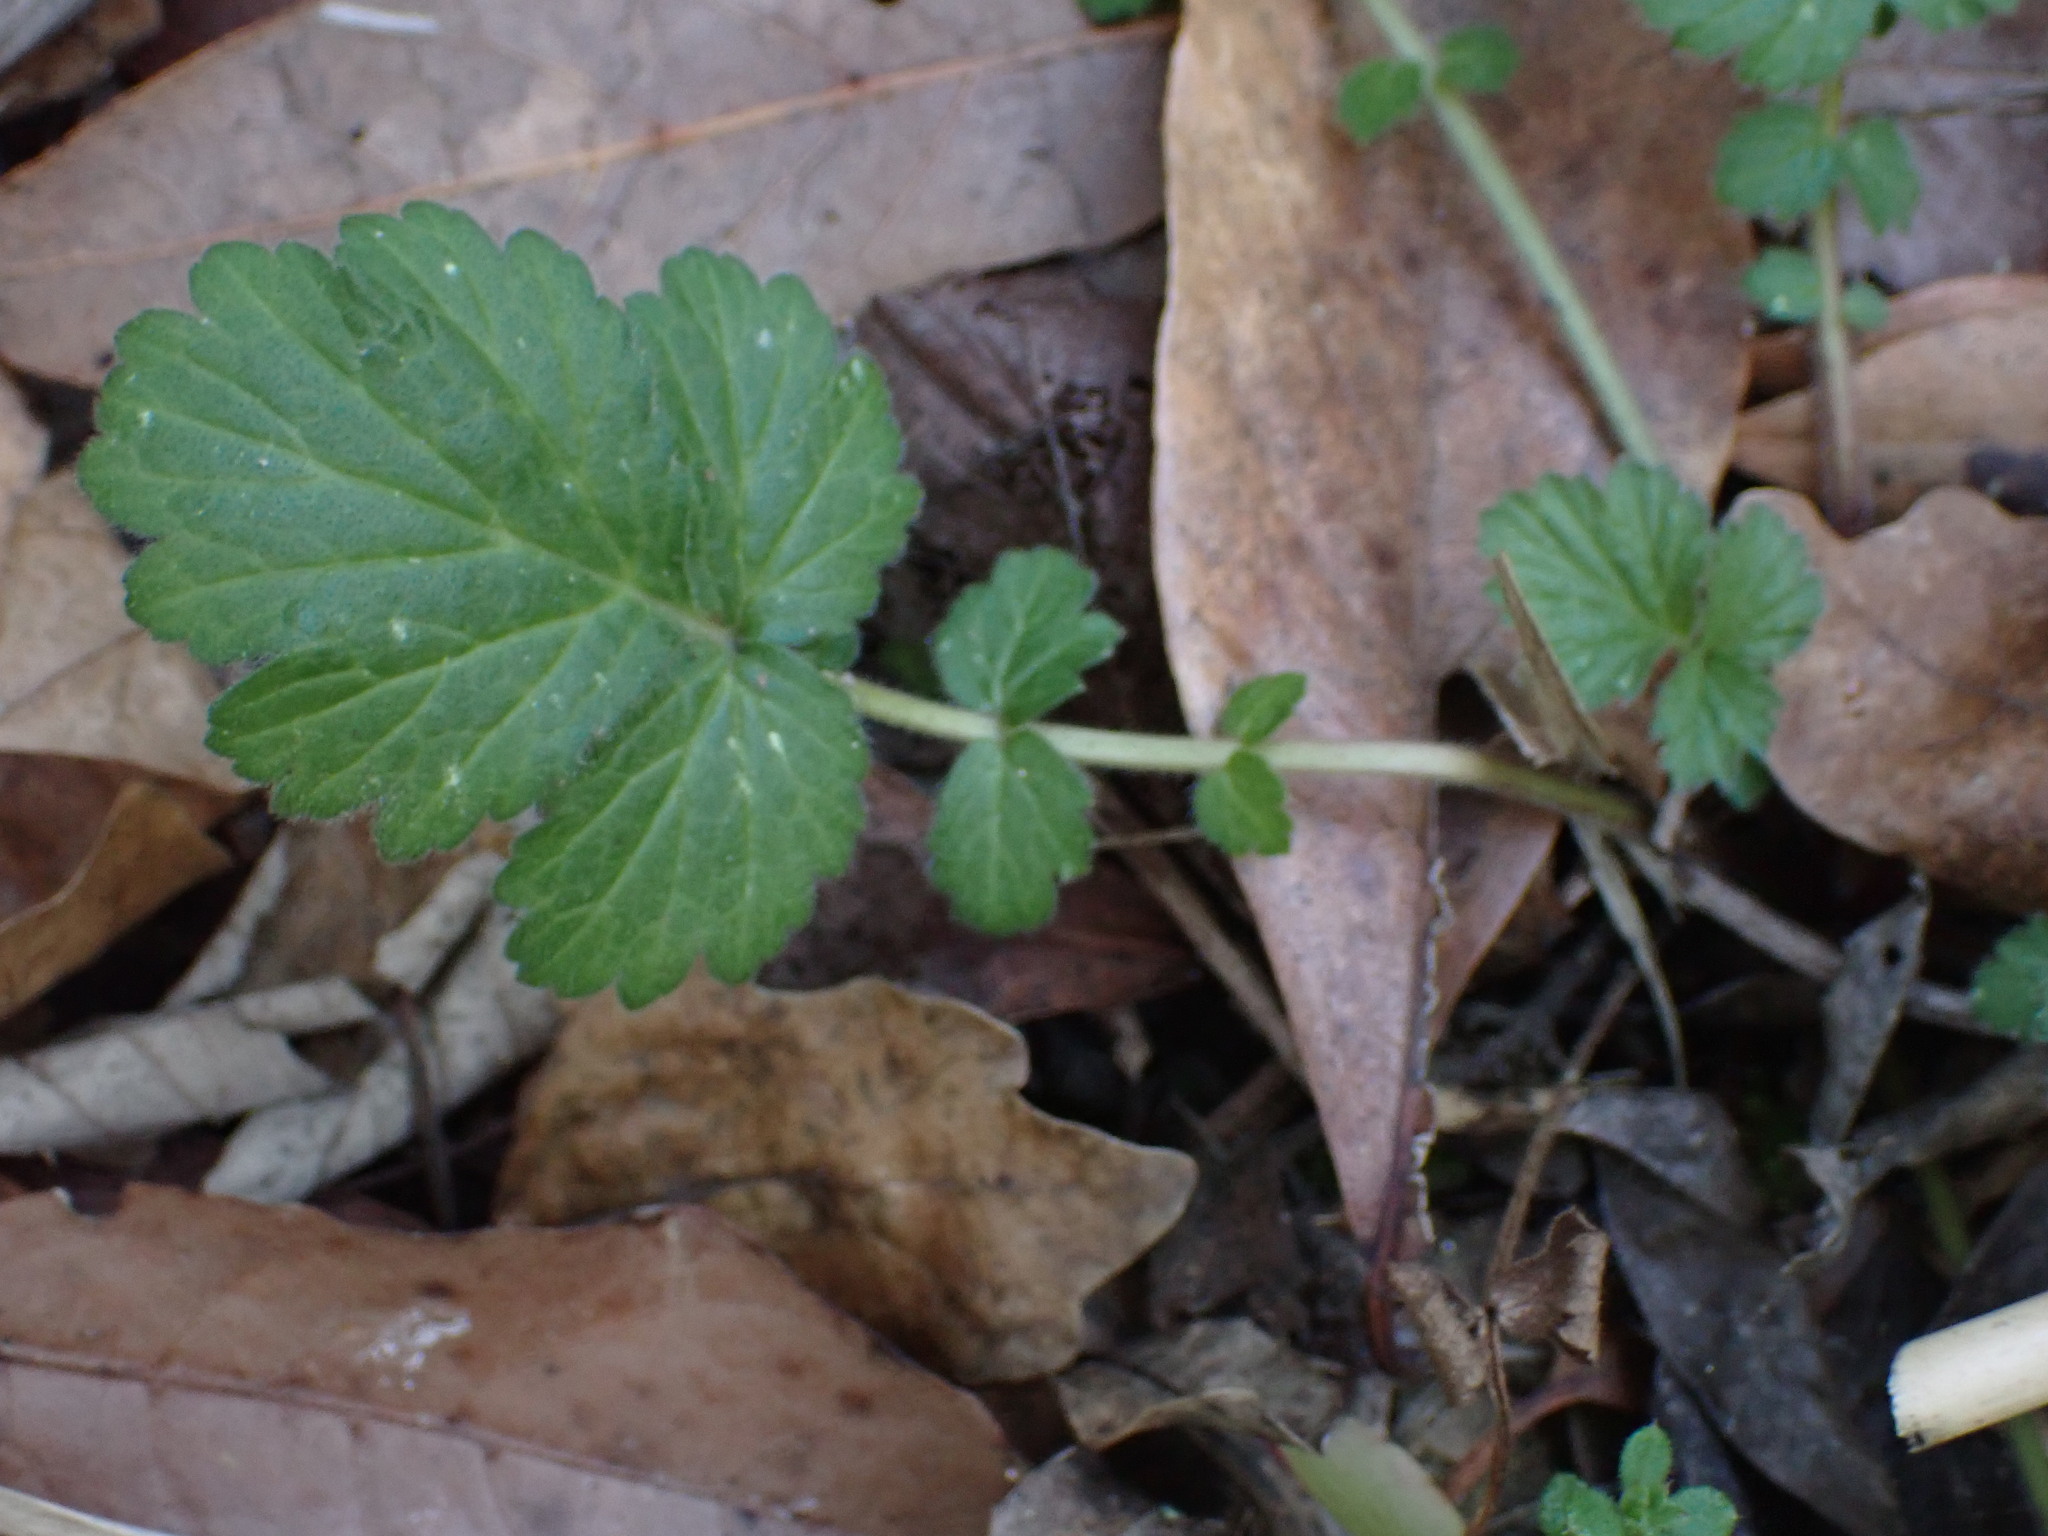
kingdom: Plantae
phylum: Tracheophyta
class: Magnoliopsida
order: Rosales
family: Rosaceae
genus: Geum
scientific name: Geum urbanum
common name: Wood avens
